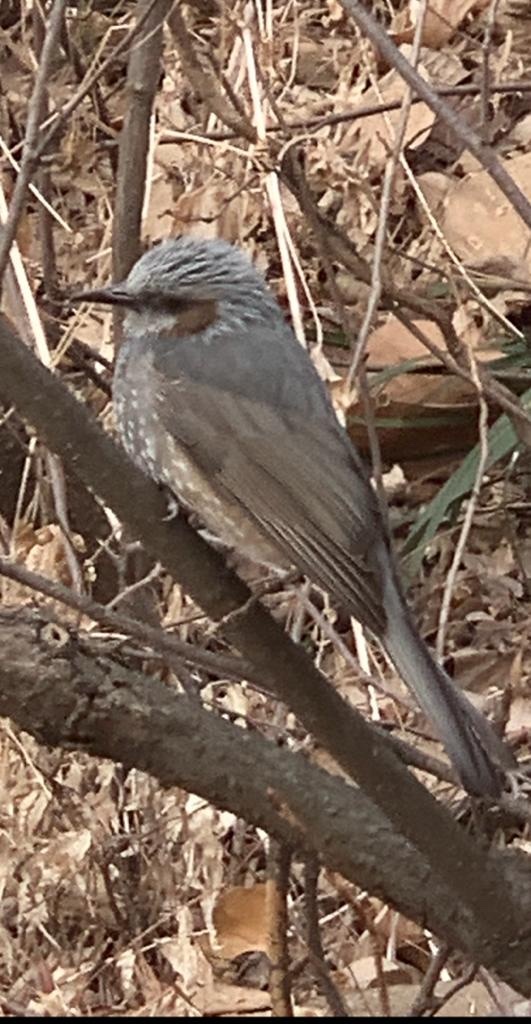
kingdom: Animalia
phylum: Chordata
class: Aves
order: Passeriformes
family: Pycnonotidae
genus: Hypsipetes
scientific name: Hypsipetes amaurotis
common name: Brown-eared bulbul
